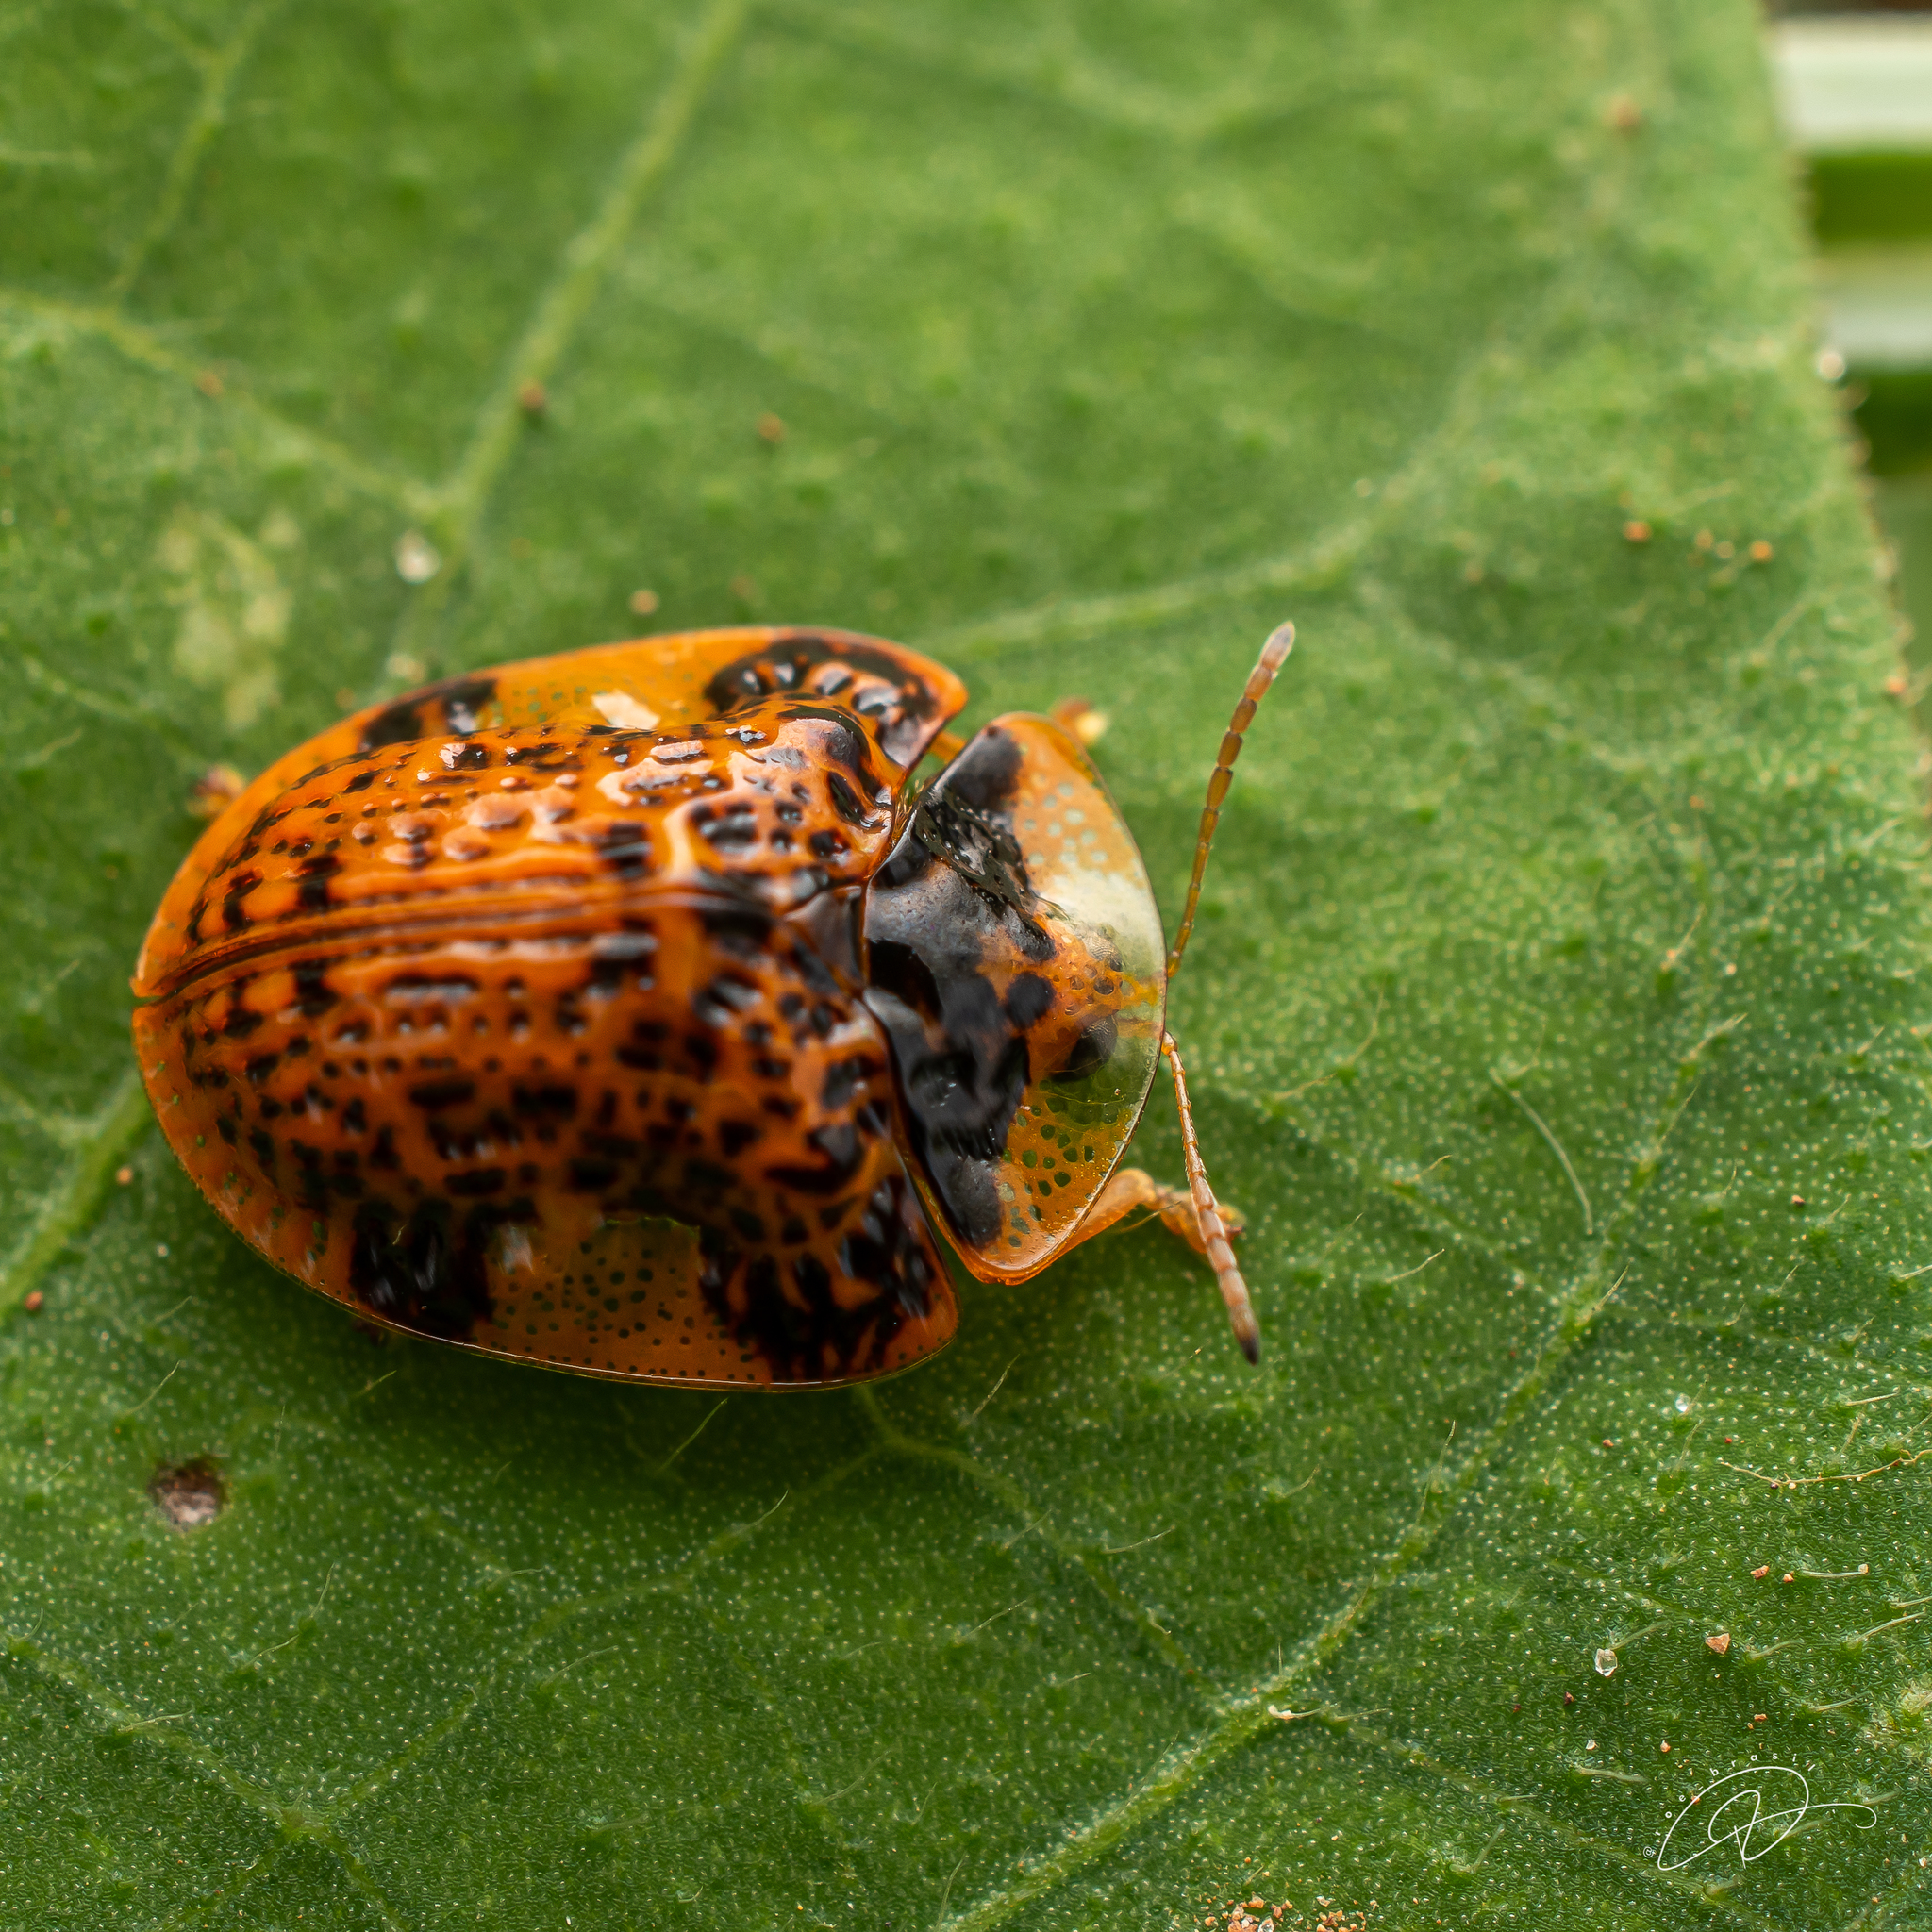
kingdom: Animalia
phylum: Arthropoda
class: Insecta
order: Coleoptera
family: Chrysomelidae
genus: Microctenochira
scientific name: Microctenochira optata
